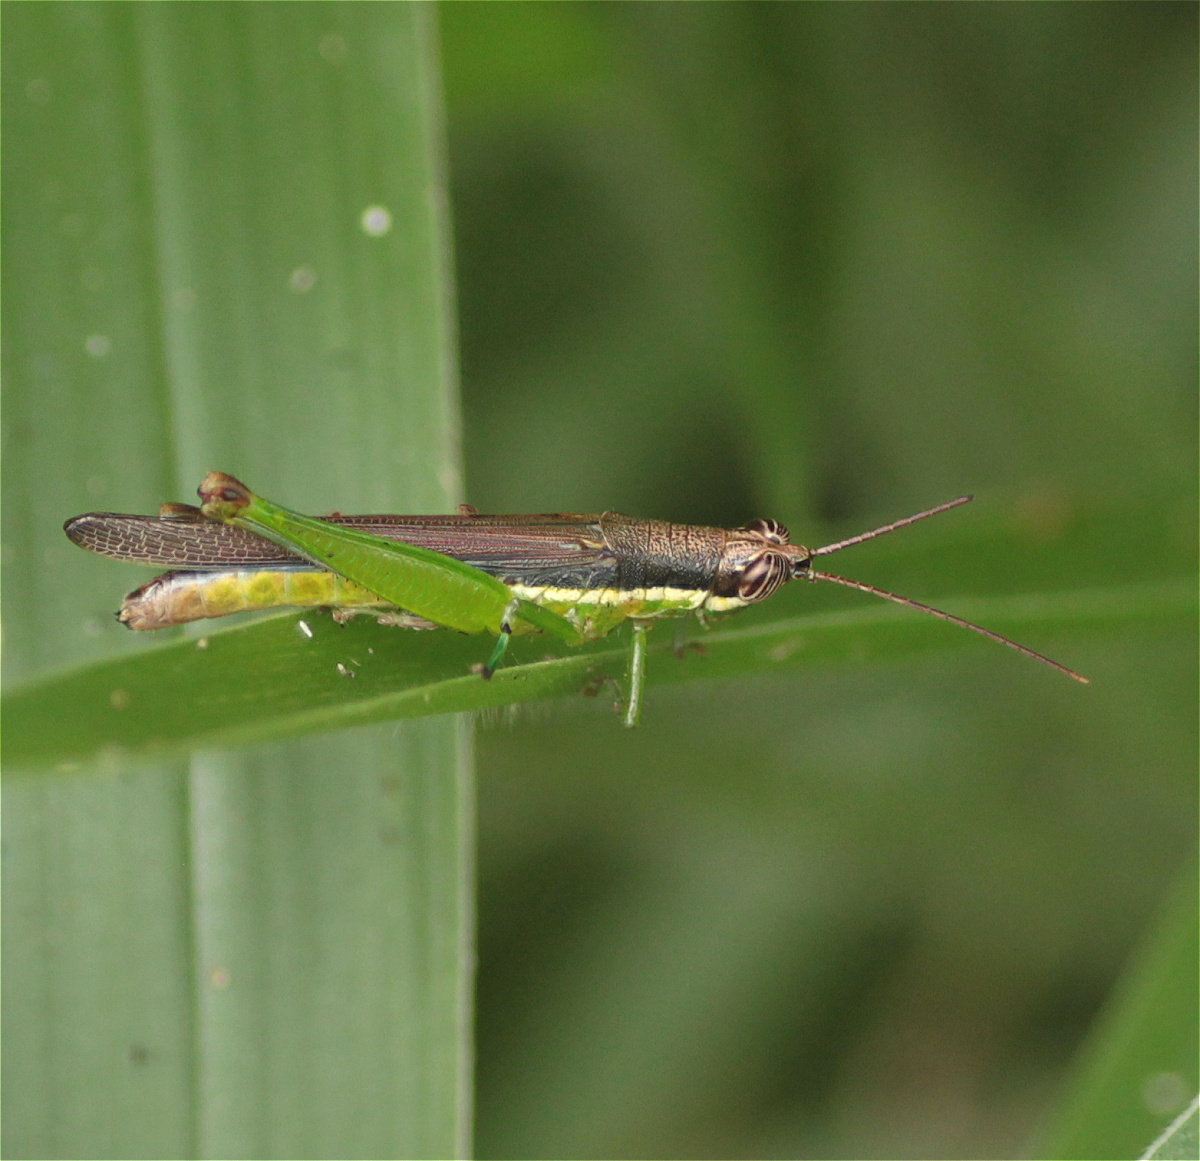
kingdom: Animalia
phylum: Arthropoda
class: Insecta
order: Orthoptera
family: Acrididae
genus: Stenopola
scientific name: Stenopola puncticeps
